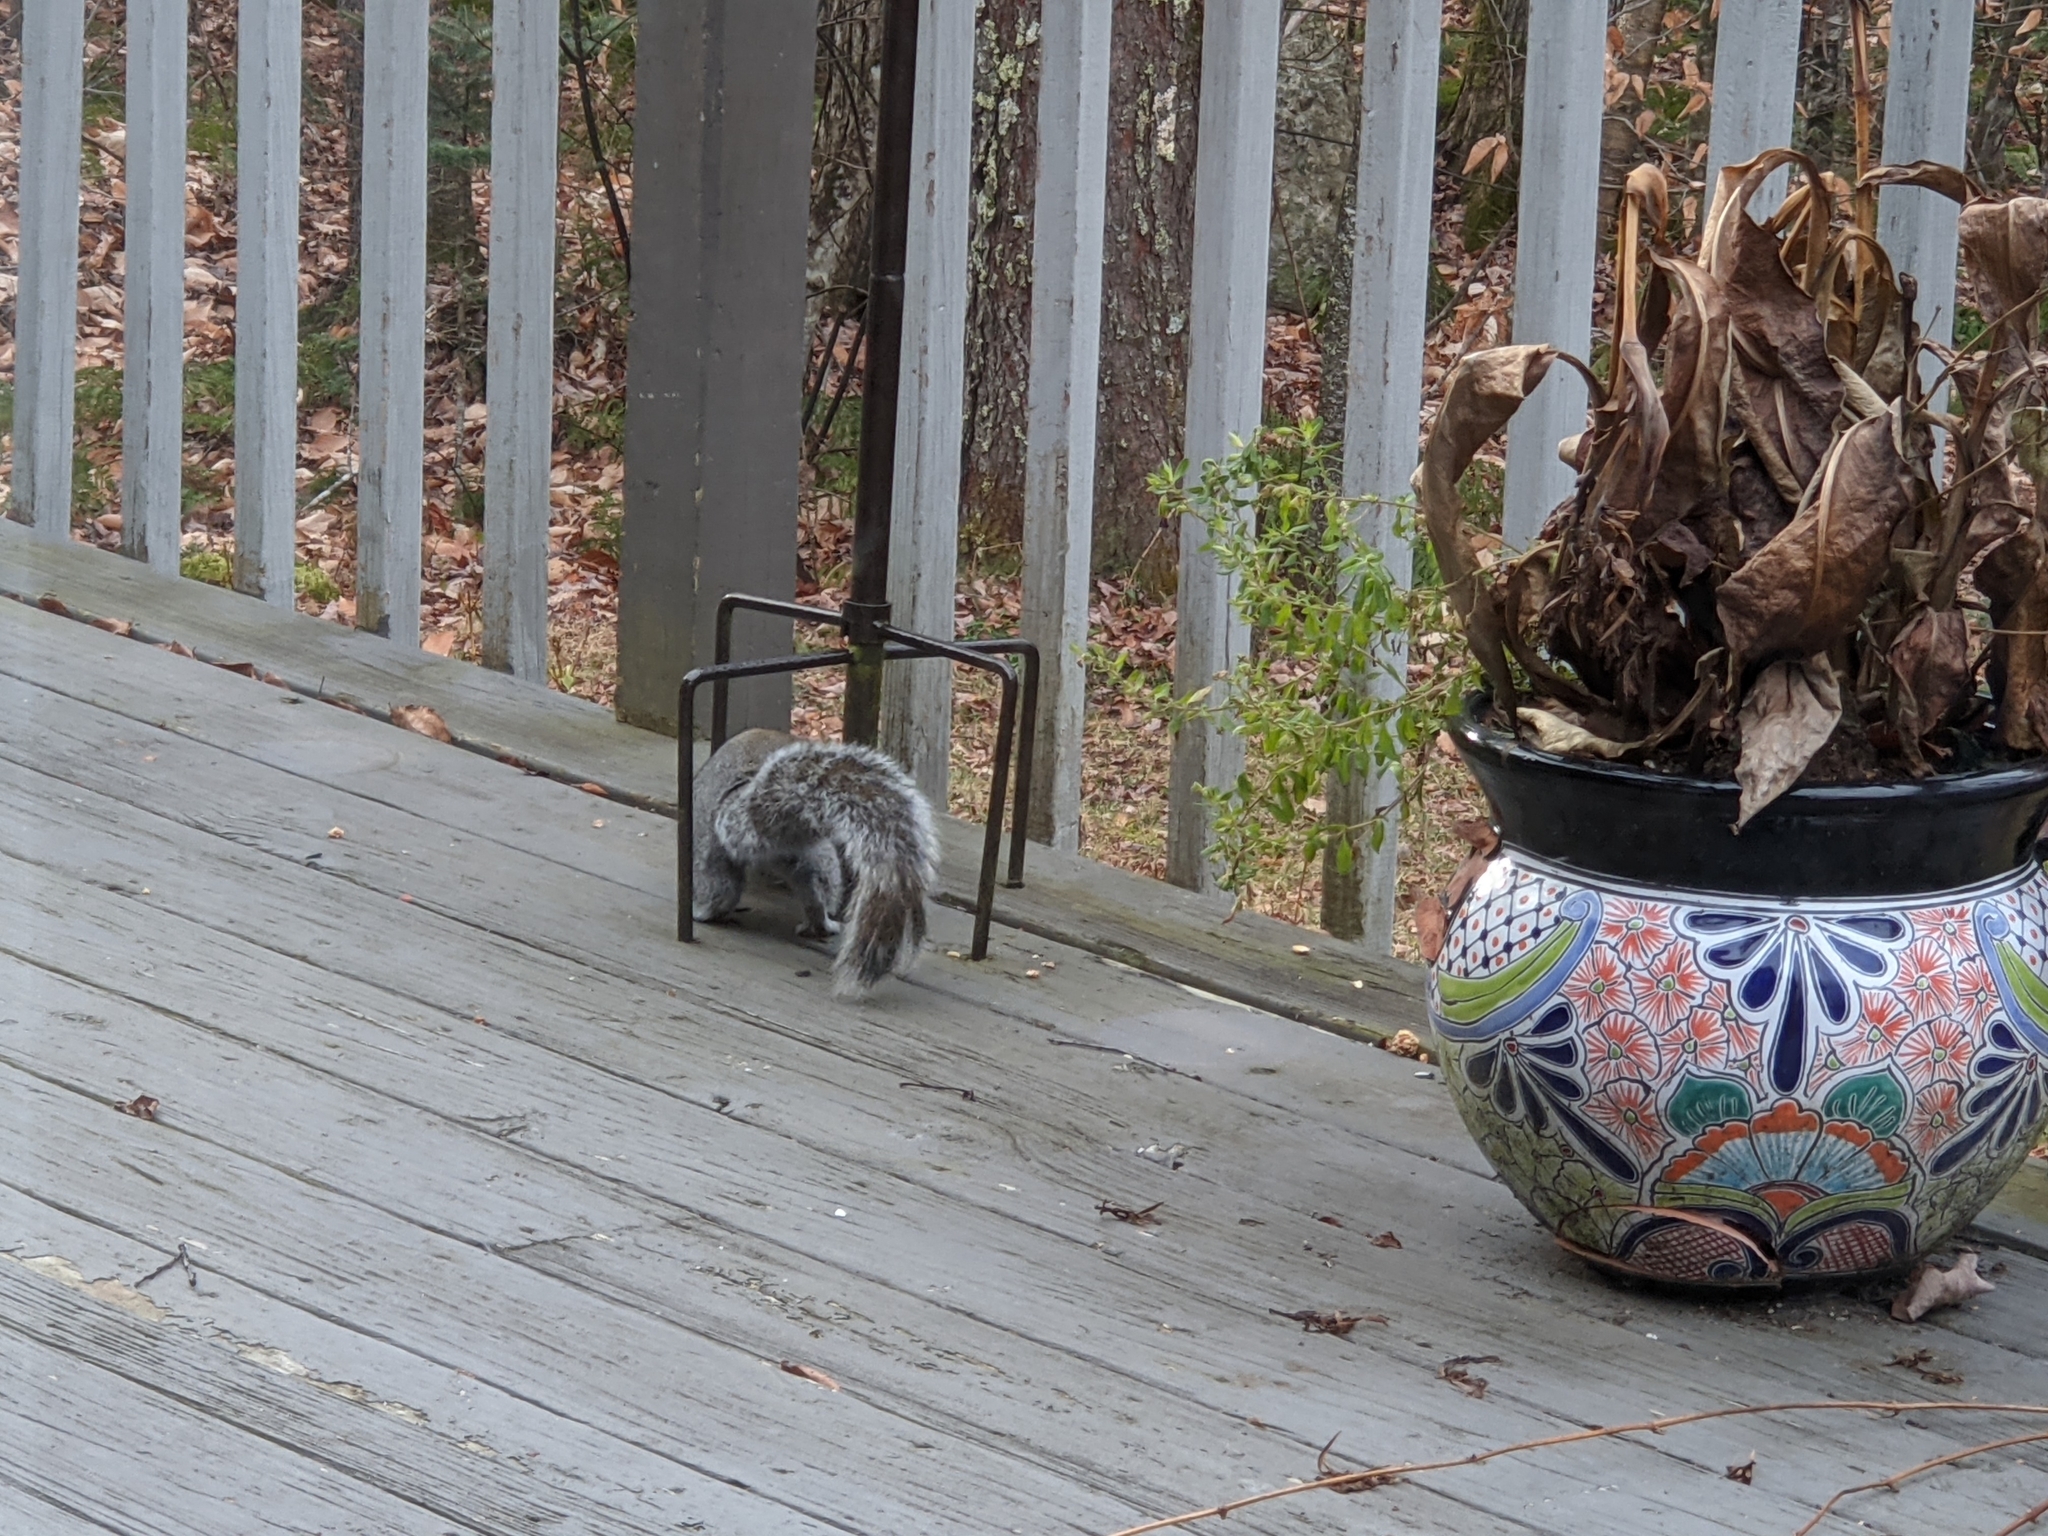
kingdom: Animalia
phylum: Chordata
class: Mammalia
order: Rodentia
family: Sciuridae
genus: Sciurus
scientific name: Sciurus carolinensis
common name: Eastern gray squirrel
